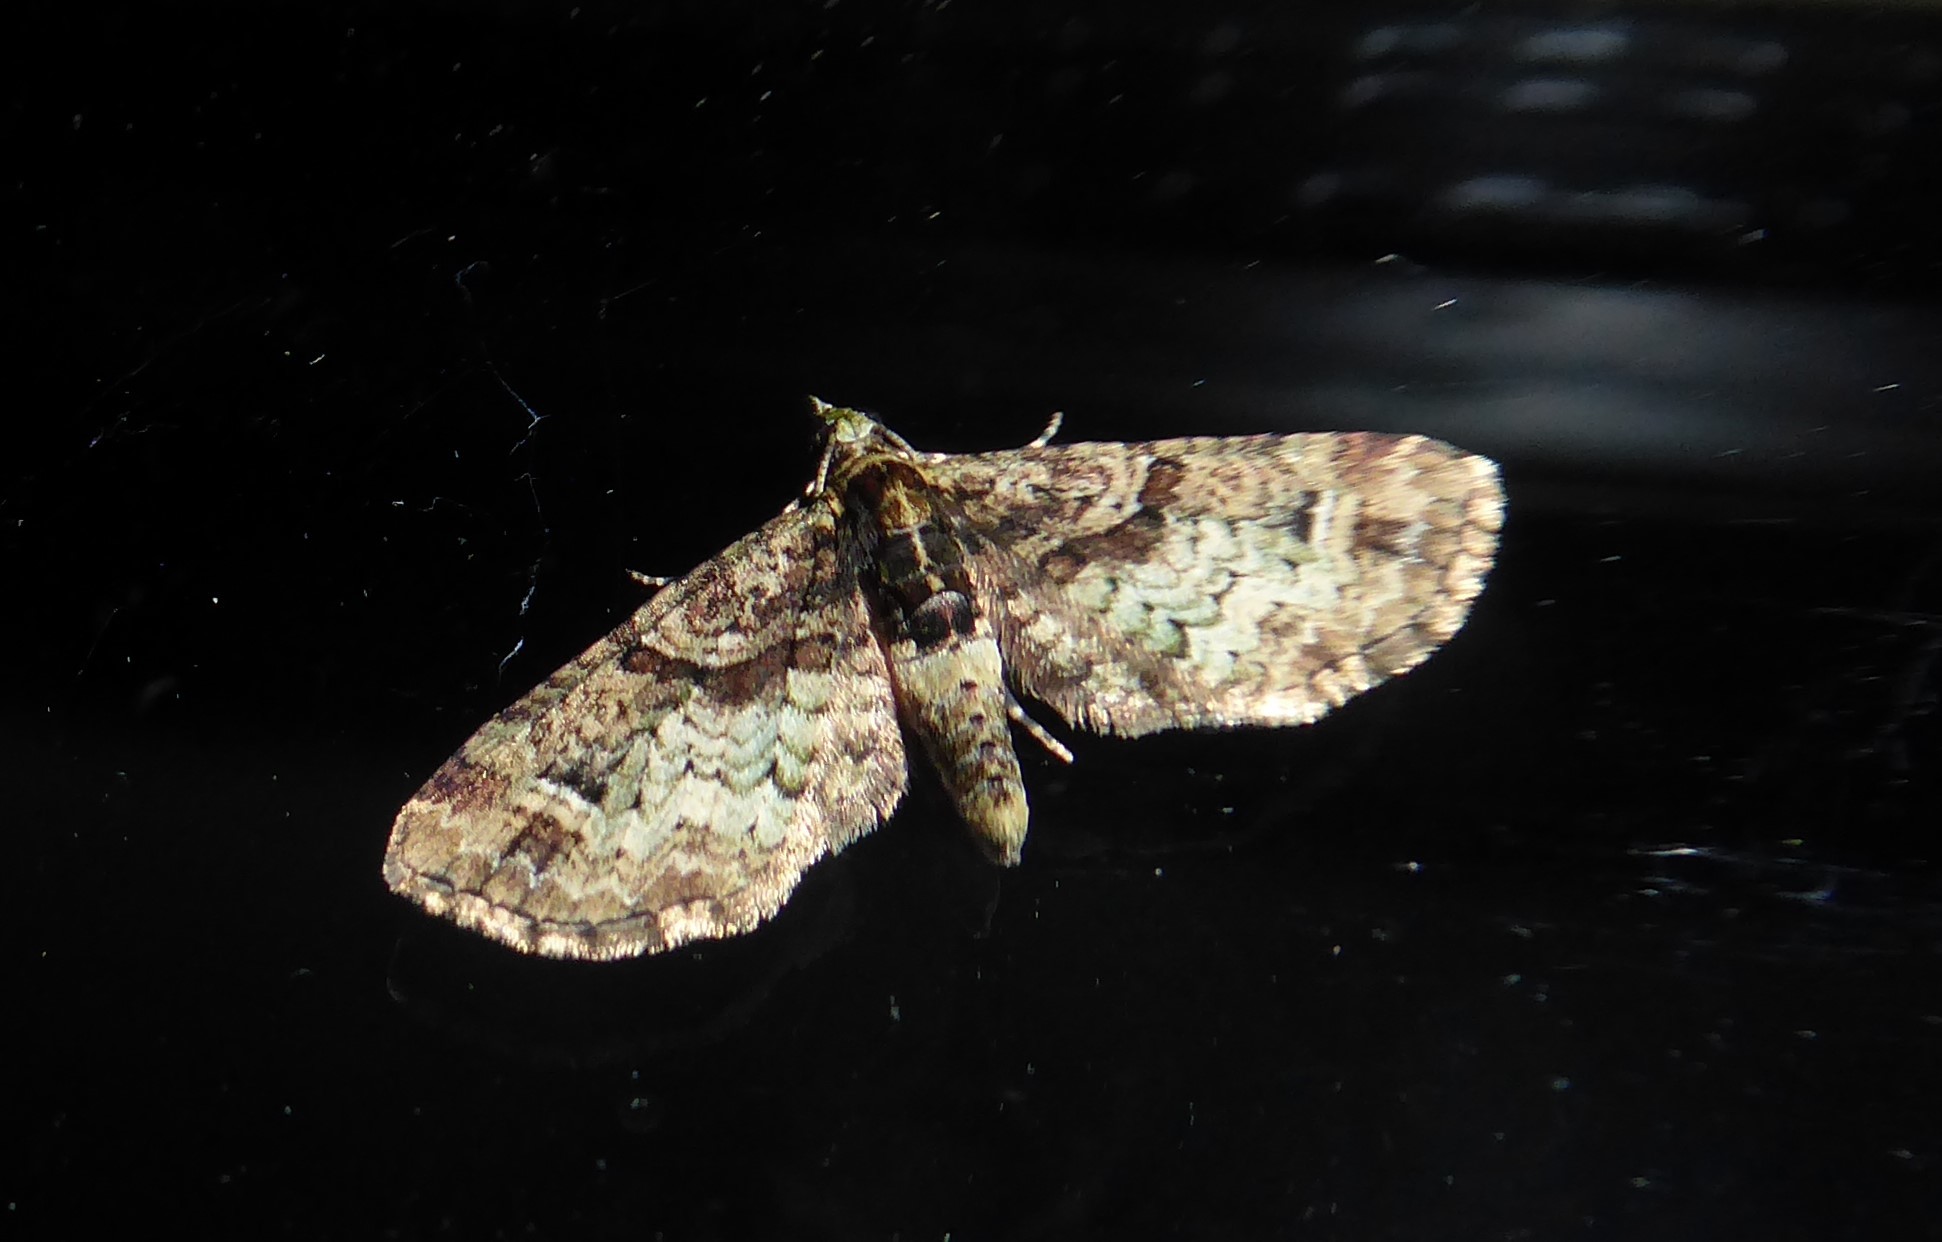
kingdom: Animalia
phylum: Arthropoda
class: Insecta
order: Lepidoptera
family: Geometridae
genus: Idaea
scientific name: Idaea mutanda
